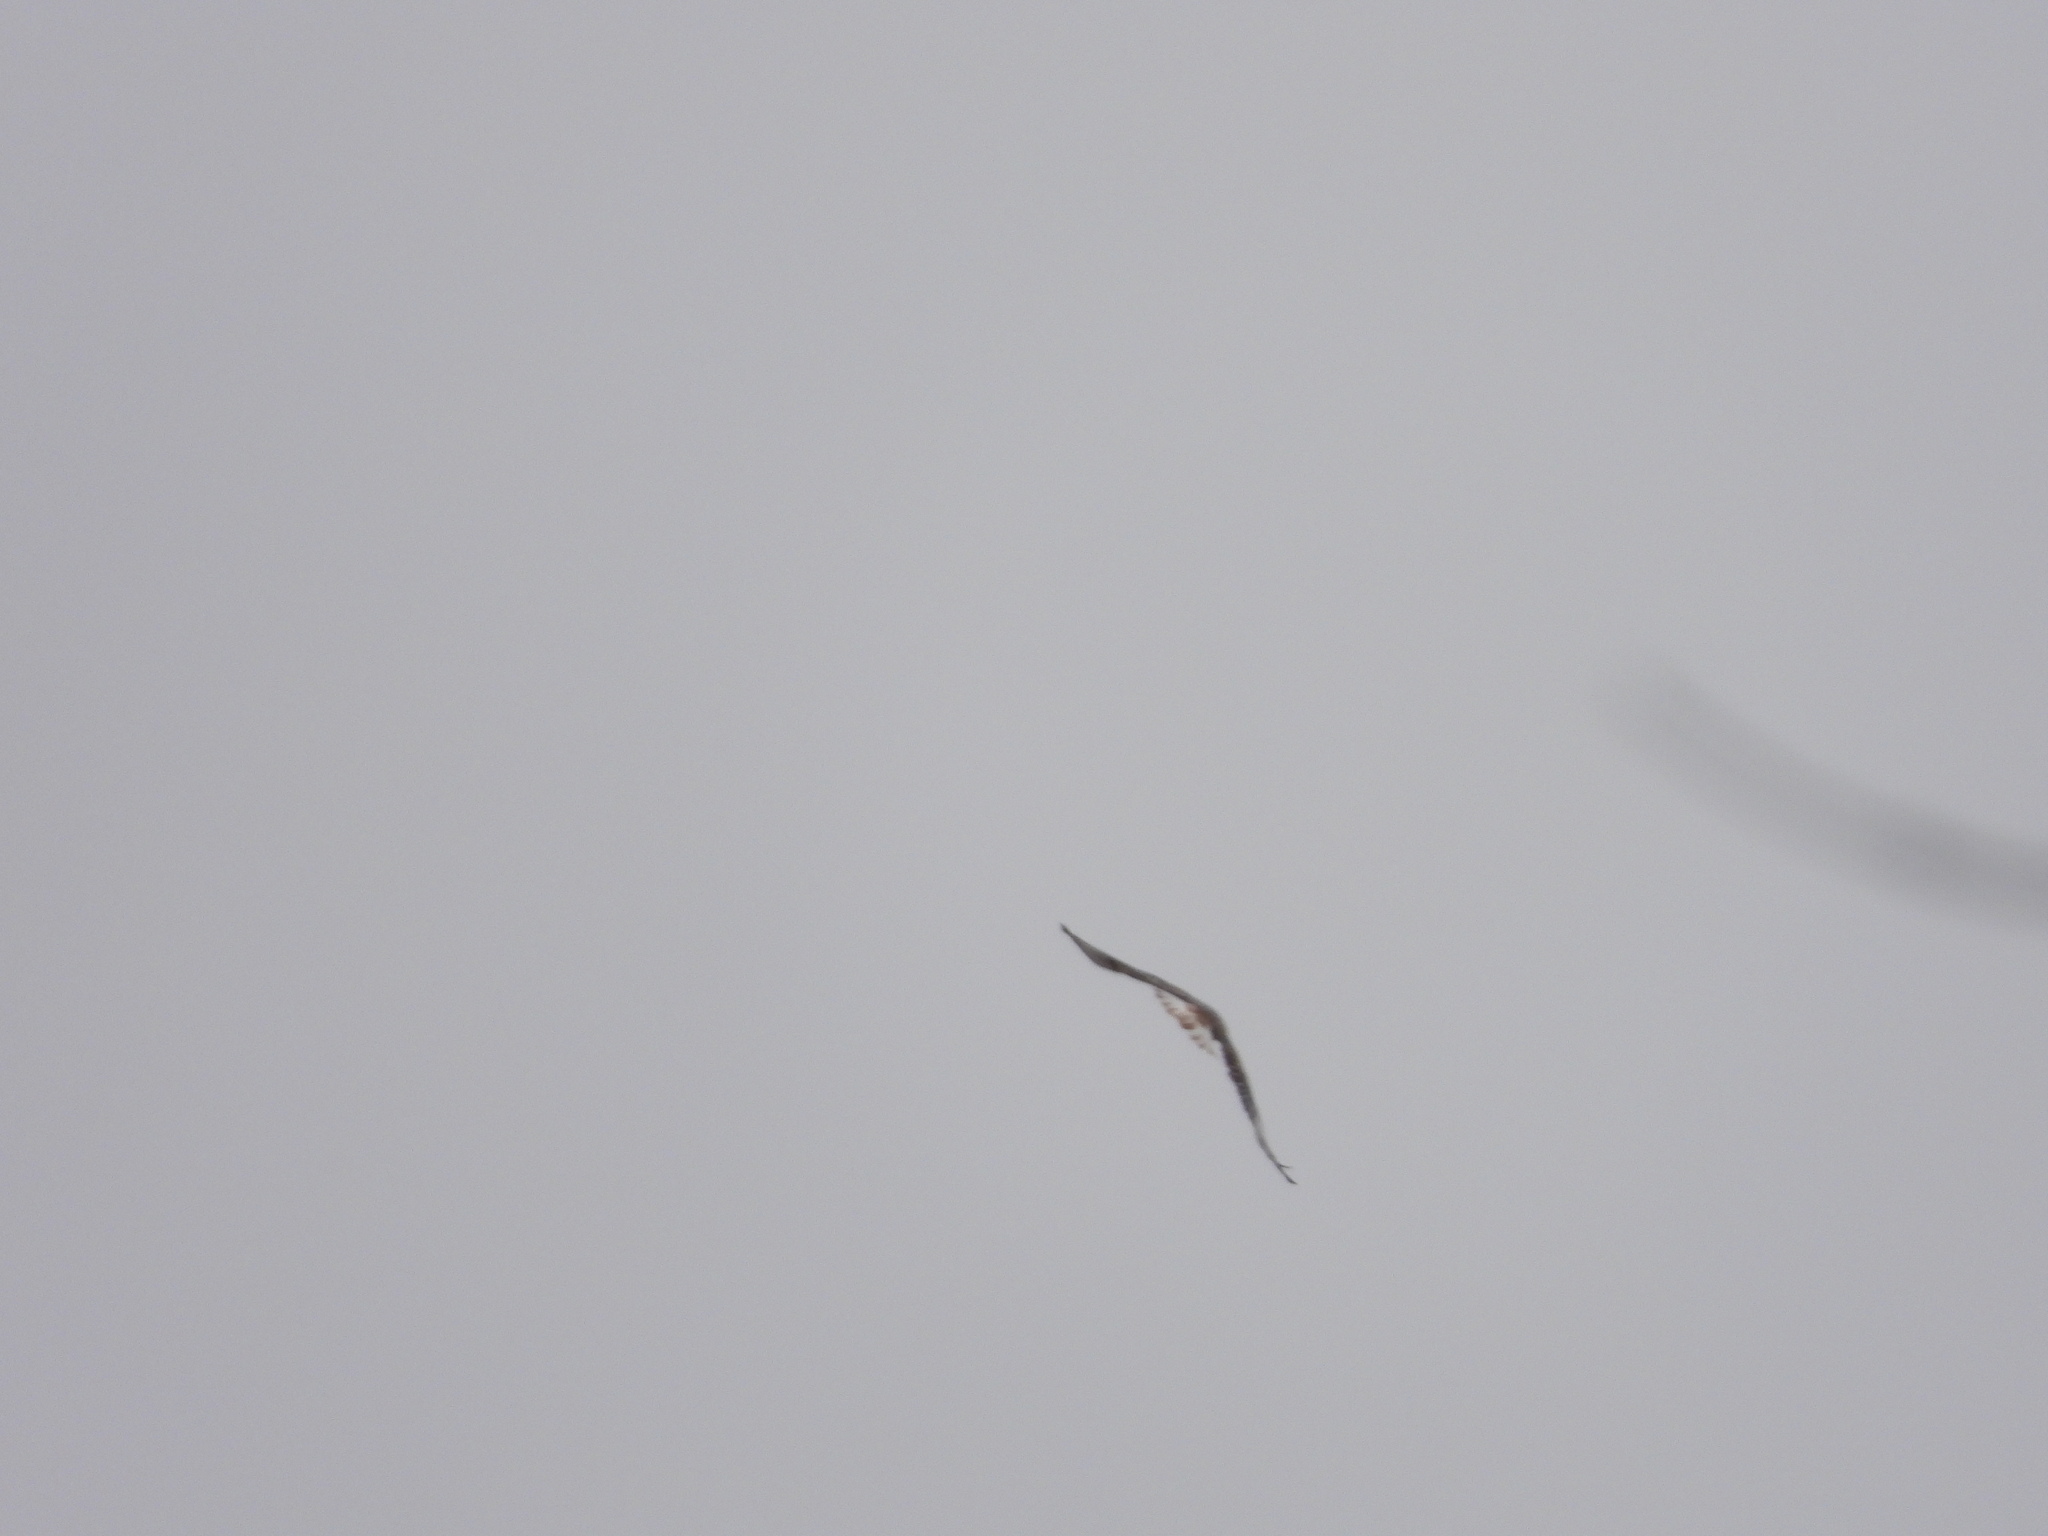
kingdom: Animalia
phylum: Chordata
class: Aves
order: Accipitriformes
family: Accipitridae
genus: Buteo
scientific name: Buteo regalis
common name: Ferruginous hawk
